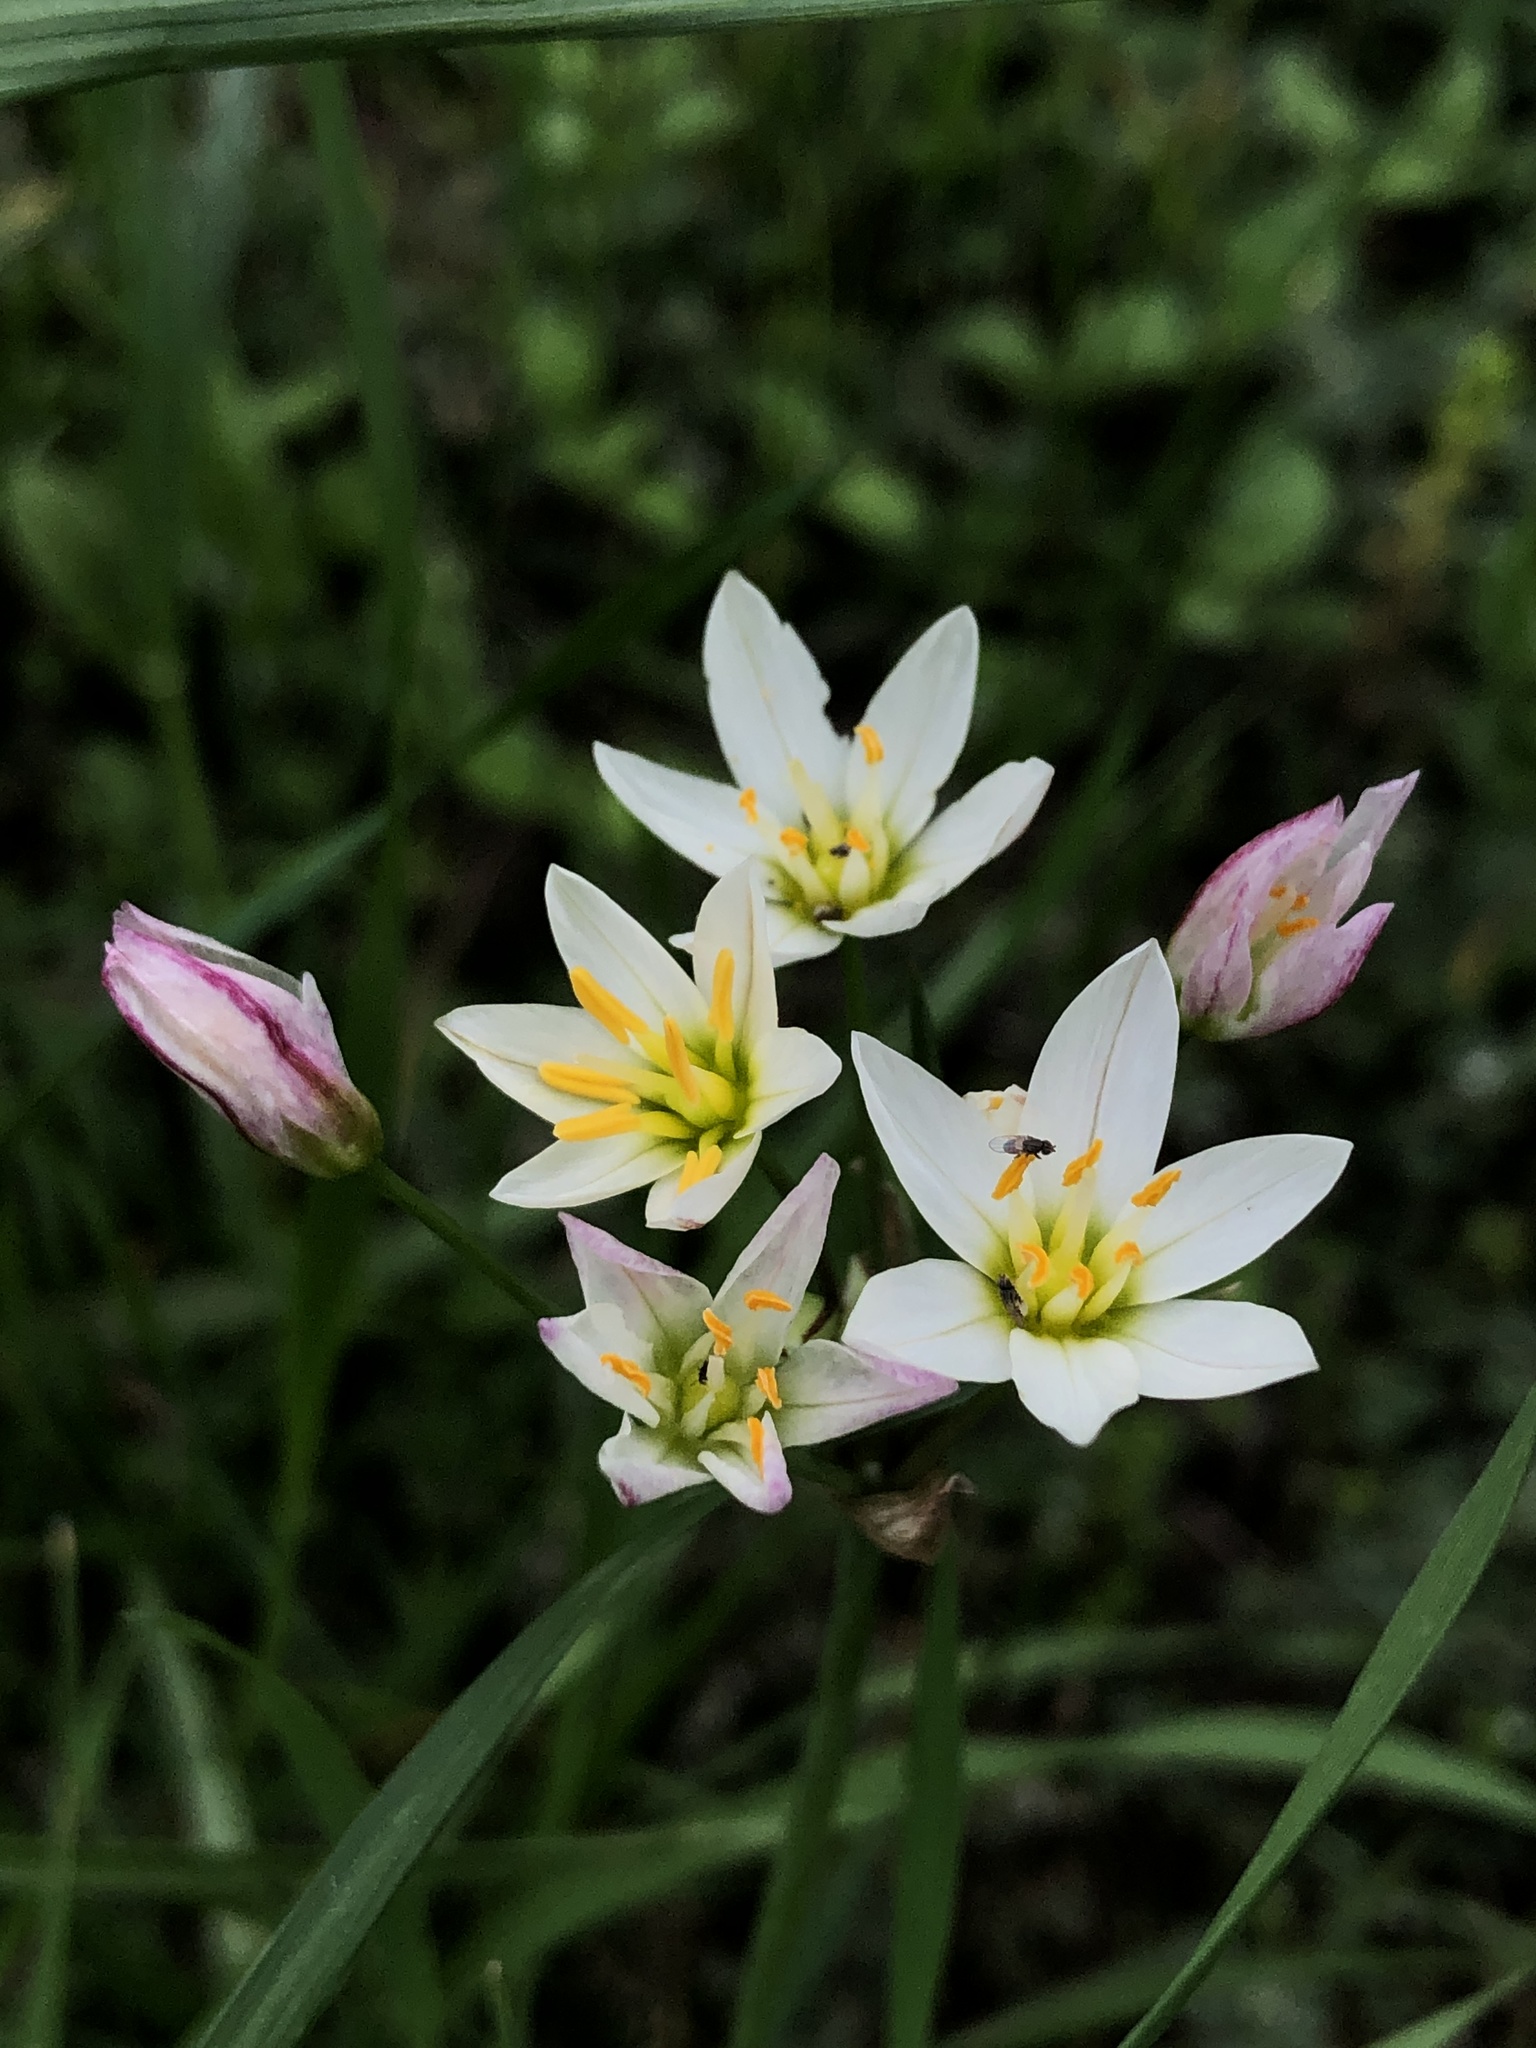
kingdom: Plantae
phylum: Tracheophyta
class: Liliopsida
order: Asparagales
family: Amaryllidaceae
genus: Nothoscordum
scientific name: Nothoscordum bivalve
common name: Crow-poison
